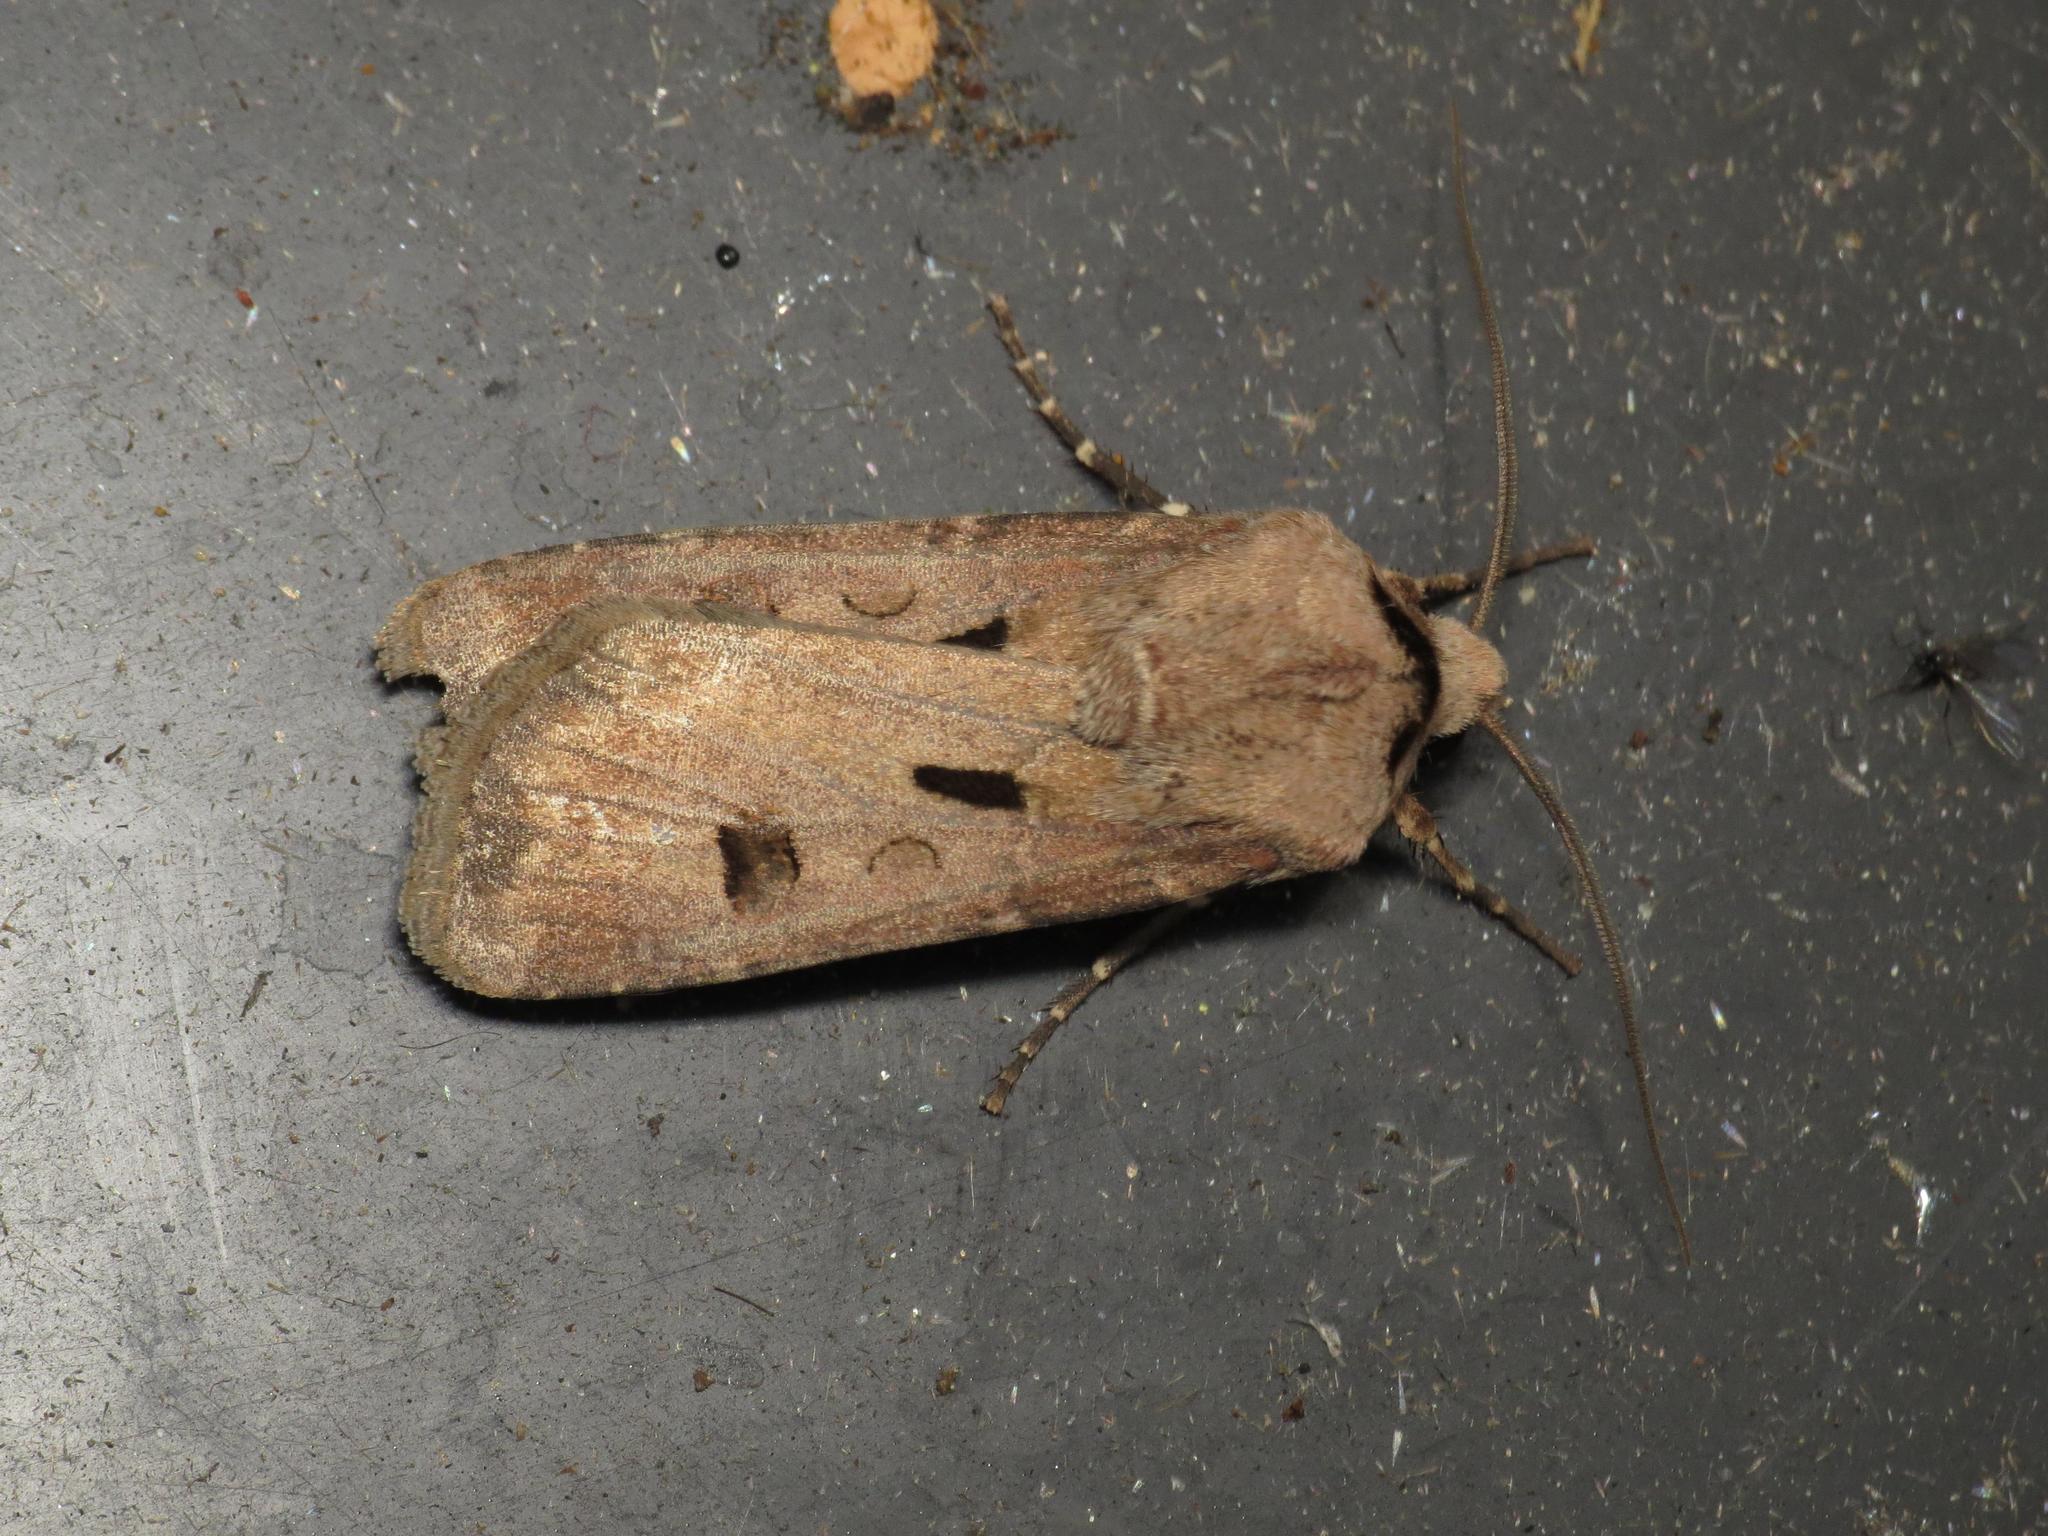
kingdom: Animalia
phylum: Arthropoda
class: Insecta
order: Lepidoptera
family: Noctuidae
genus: Agrotis
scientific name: Agrotis exclamationis
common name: Heart and dart
